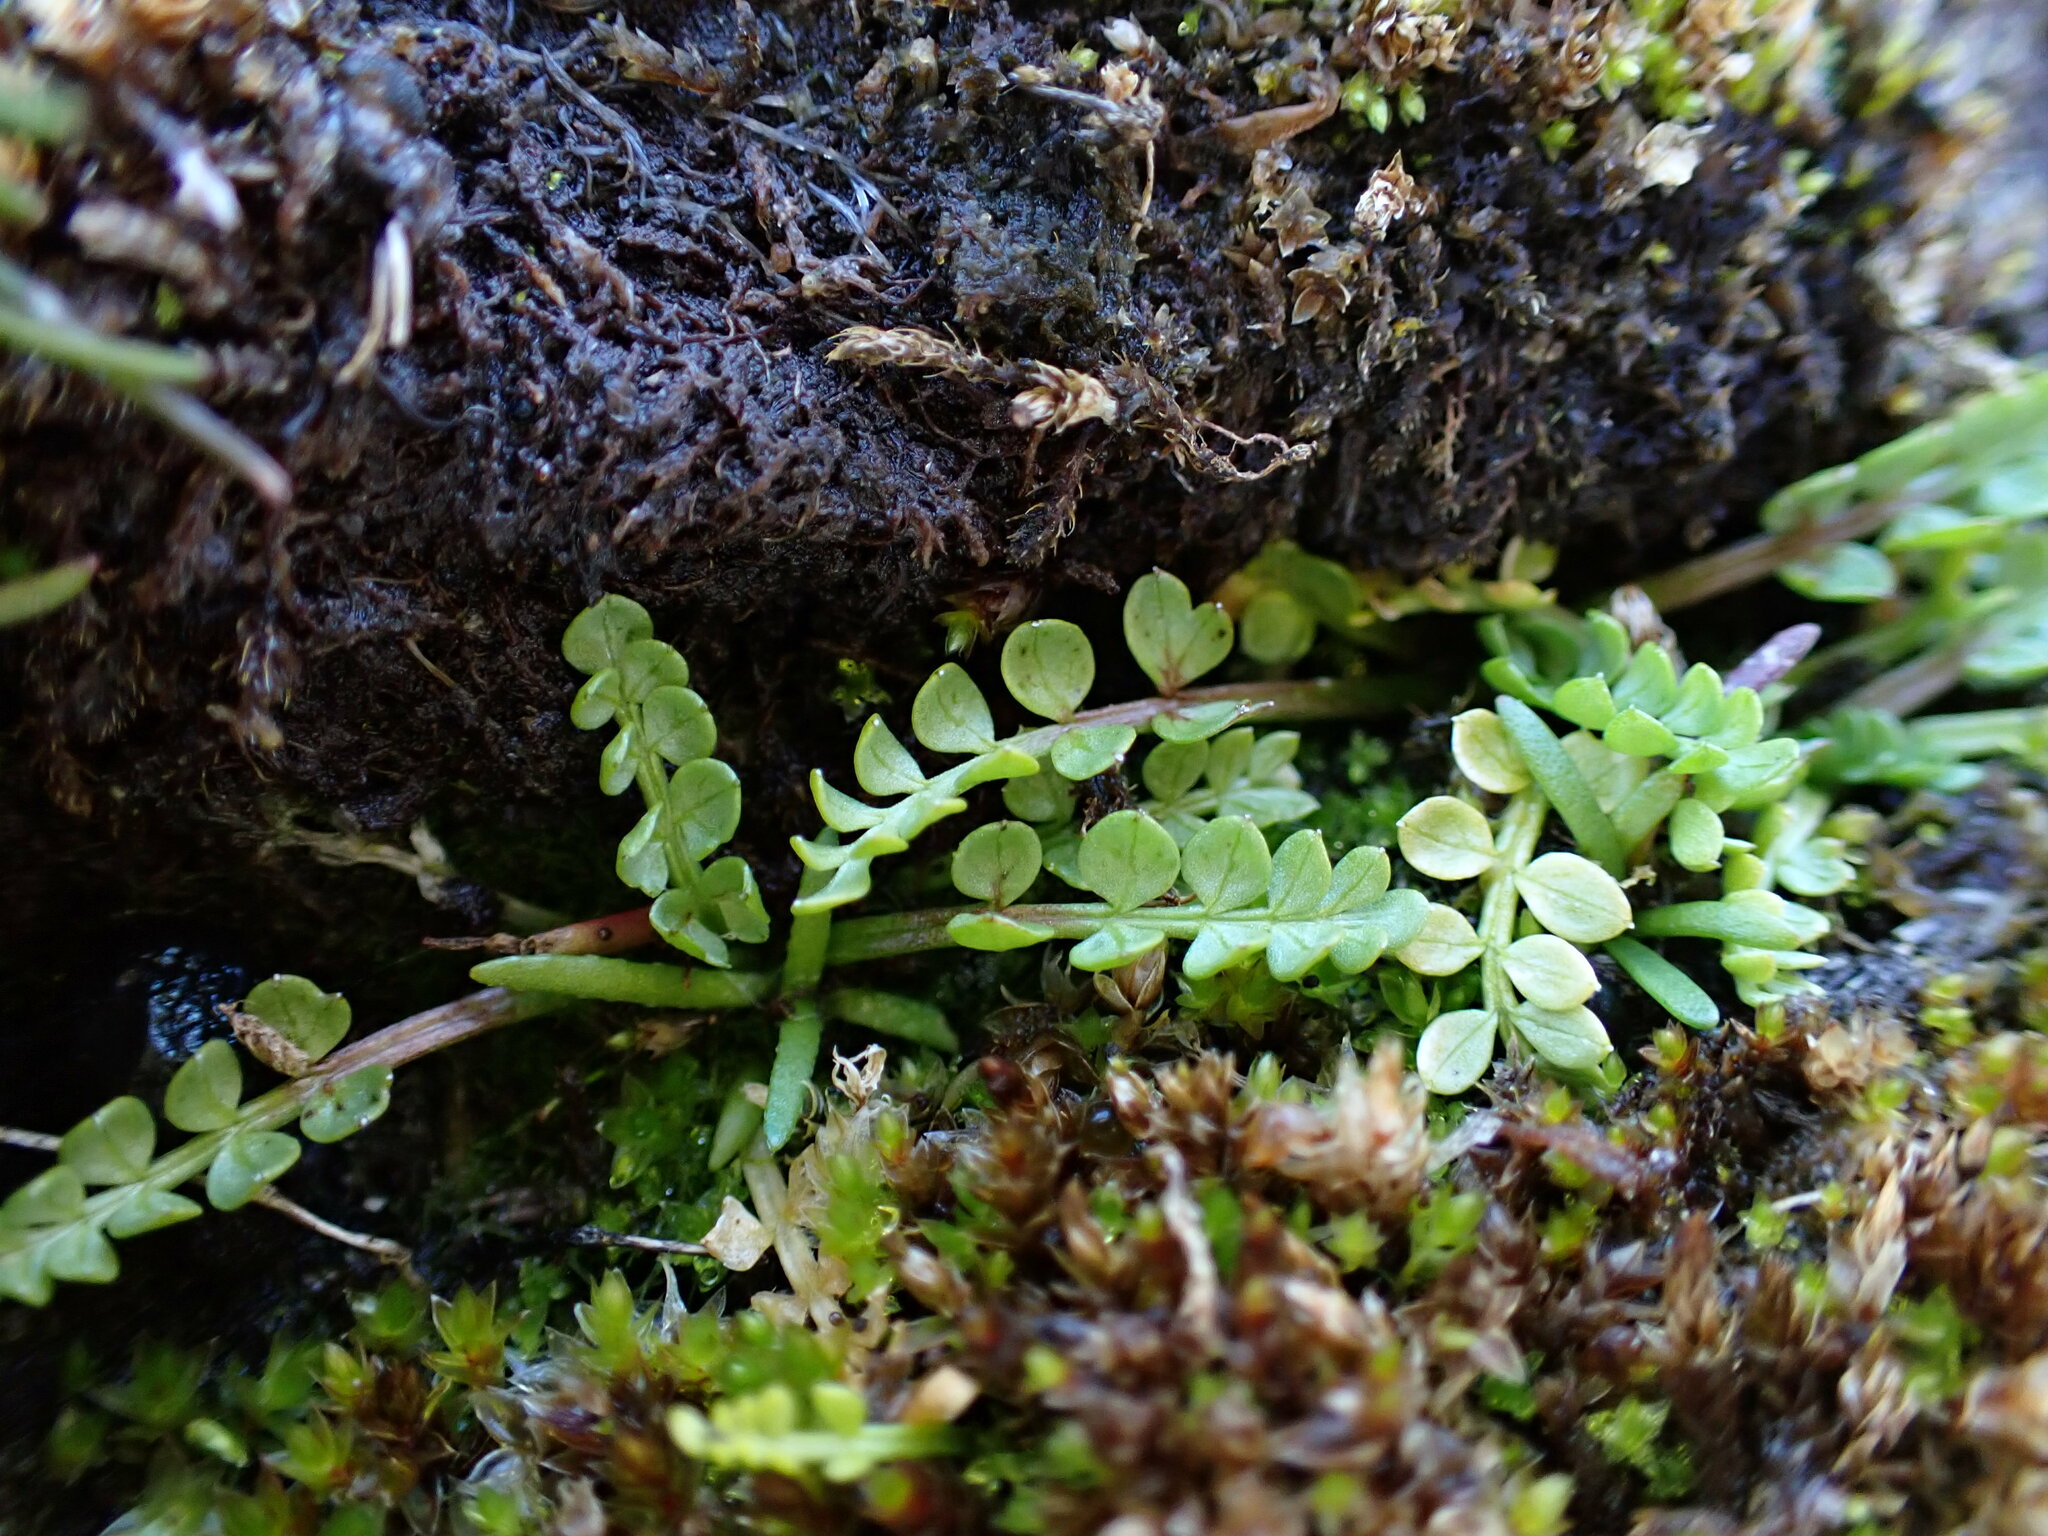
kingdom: Plantae
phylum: Tracheophyta
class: Magnoliopsida
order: Brassicales
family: Limnanthaceae
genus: Limnanthes
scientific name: Limnanthes macounii
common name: Macoun's meadowfoam
